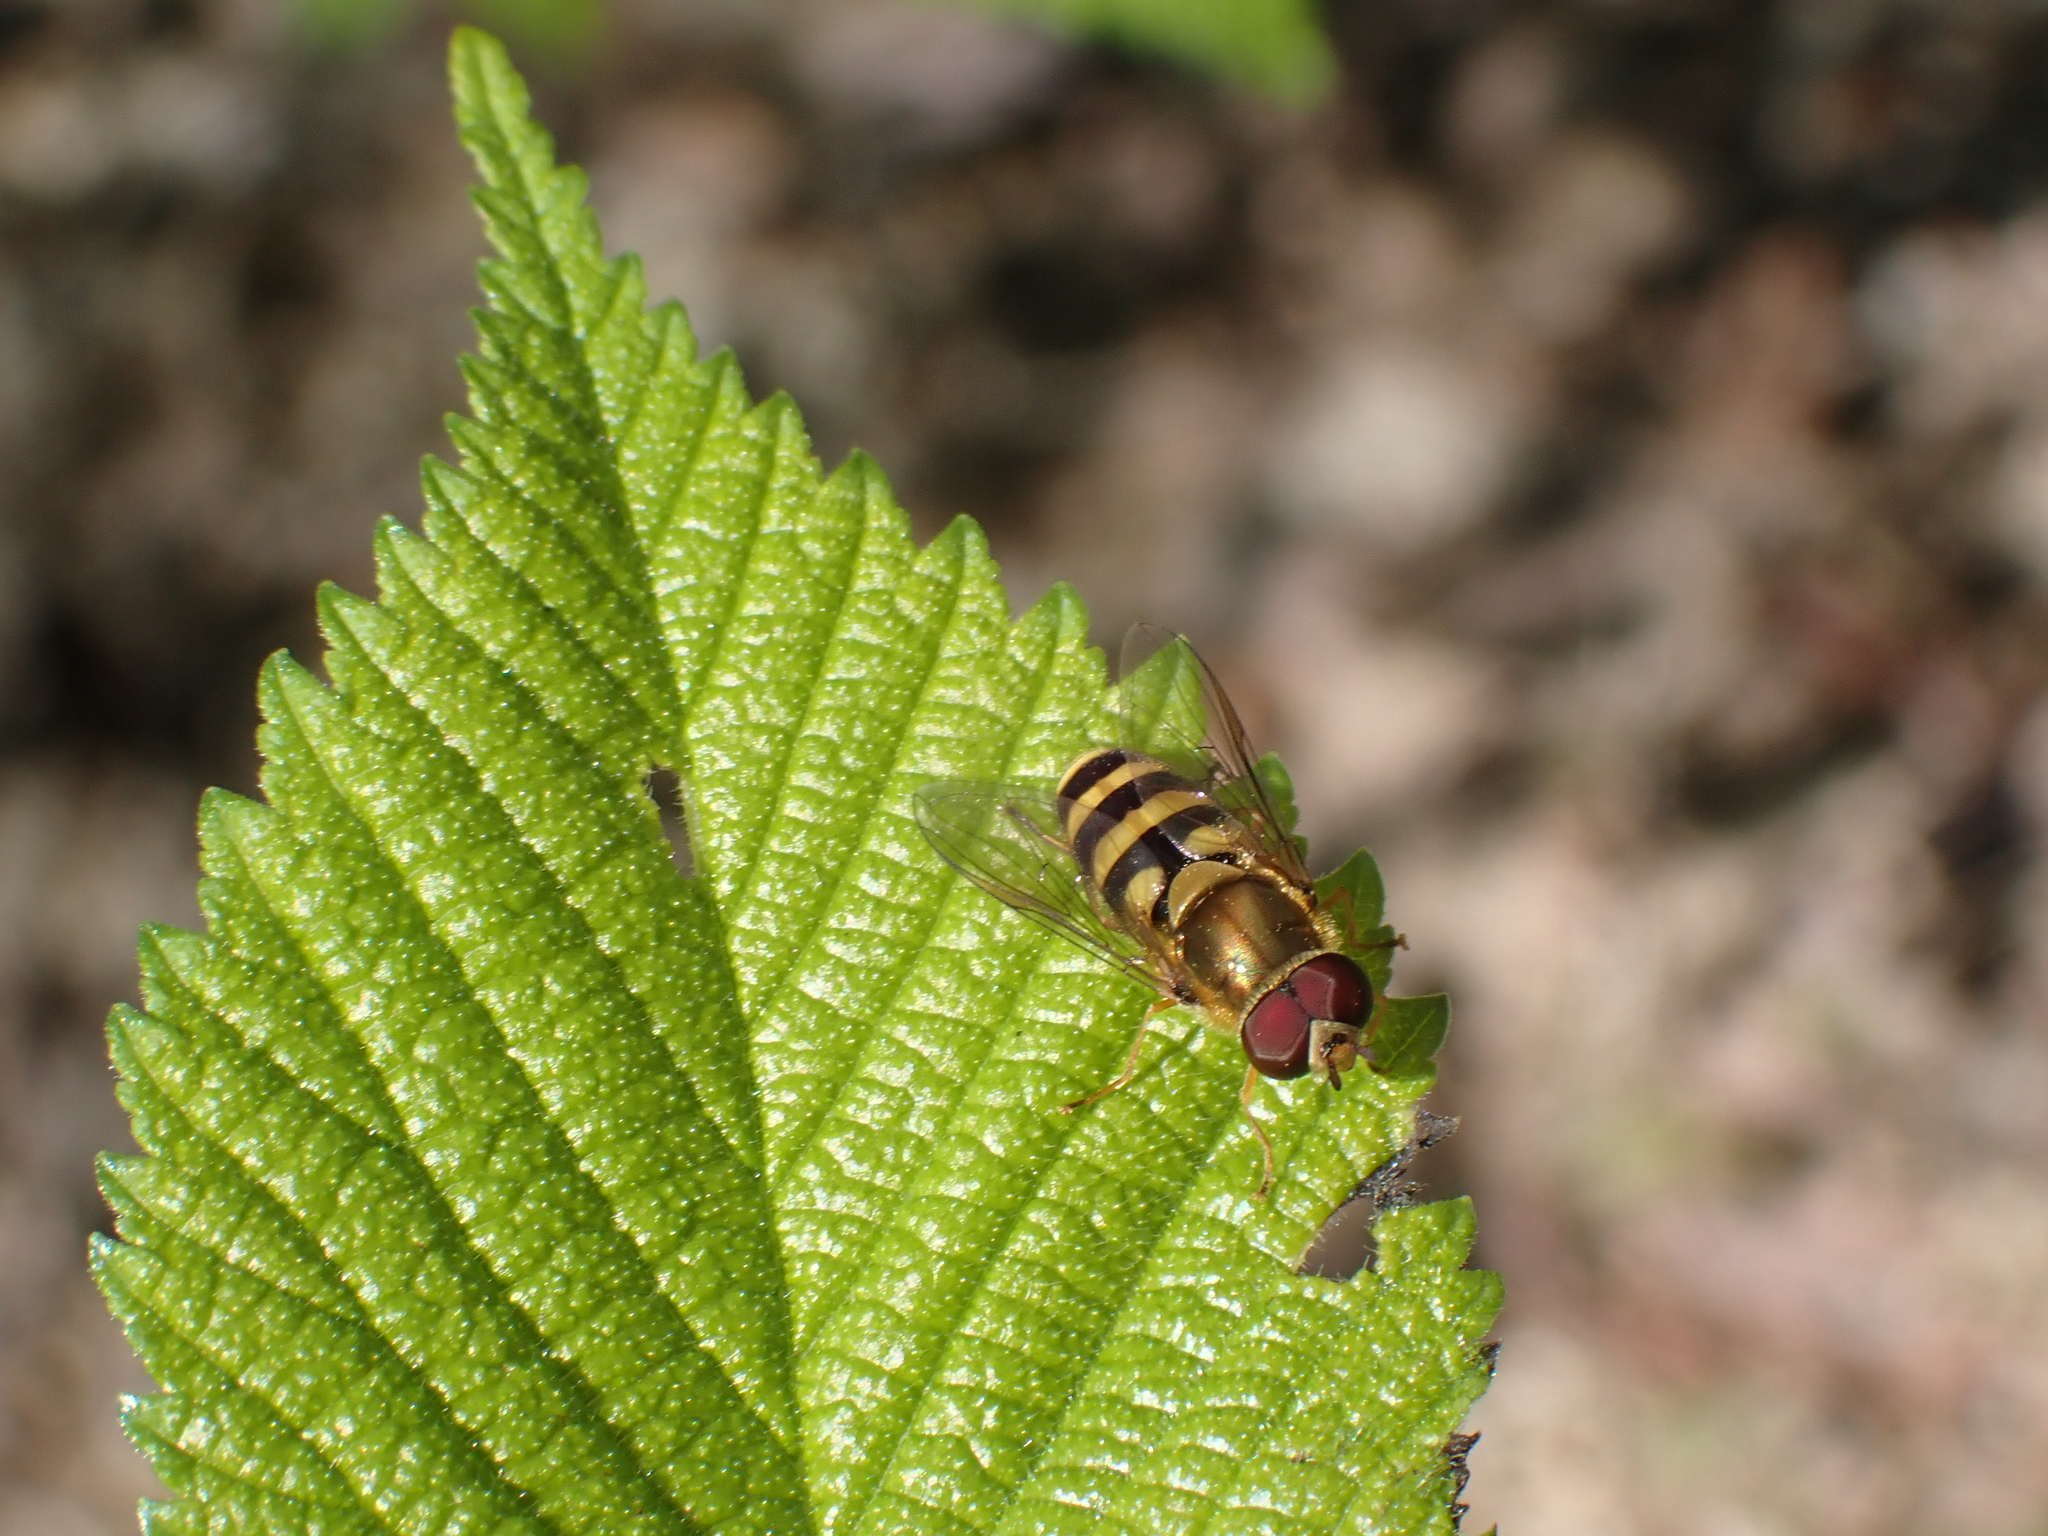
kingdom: Animalia
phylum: Arthropoda
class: Insecta
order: Diptera
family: Syrphidae
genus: Syrphus
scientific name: Syrphus
